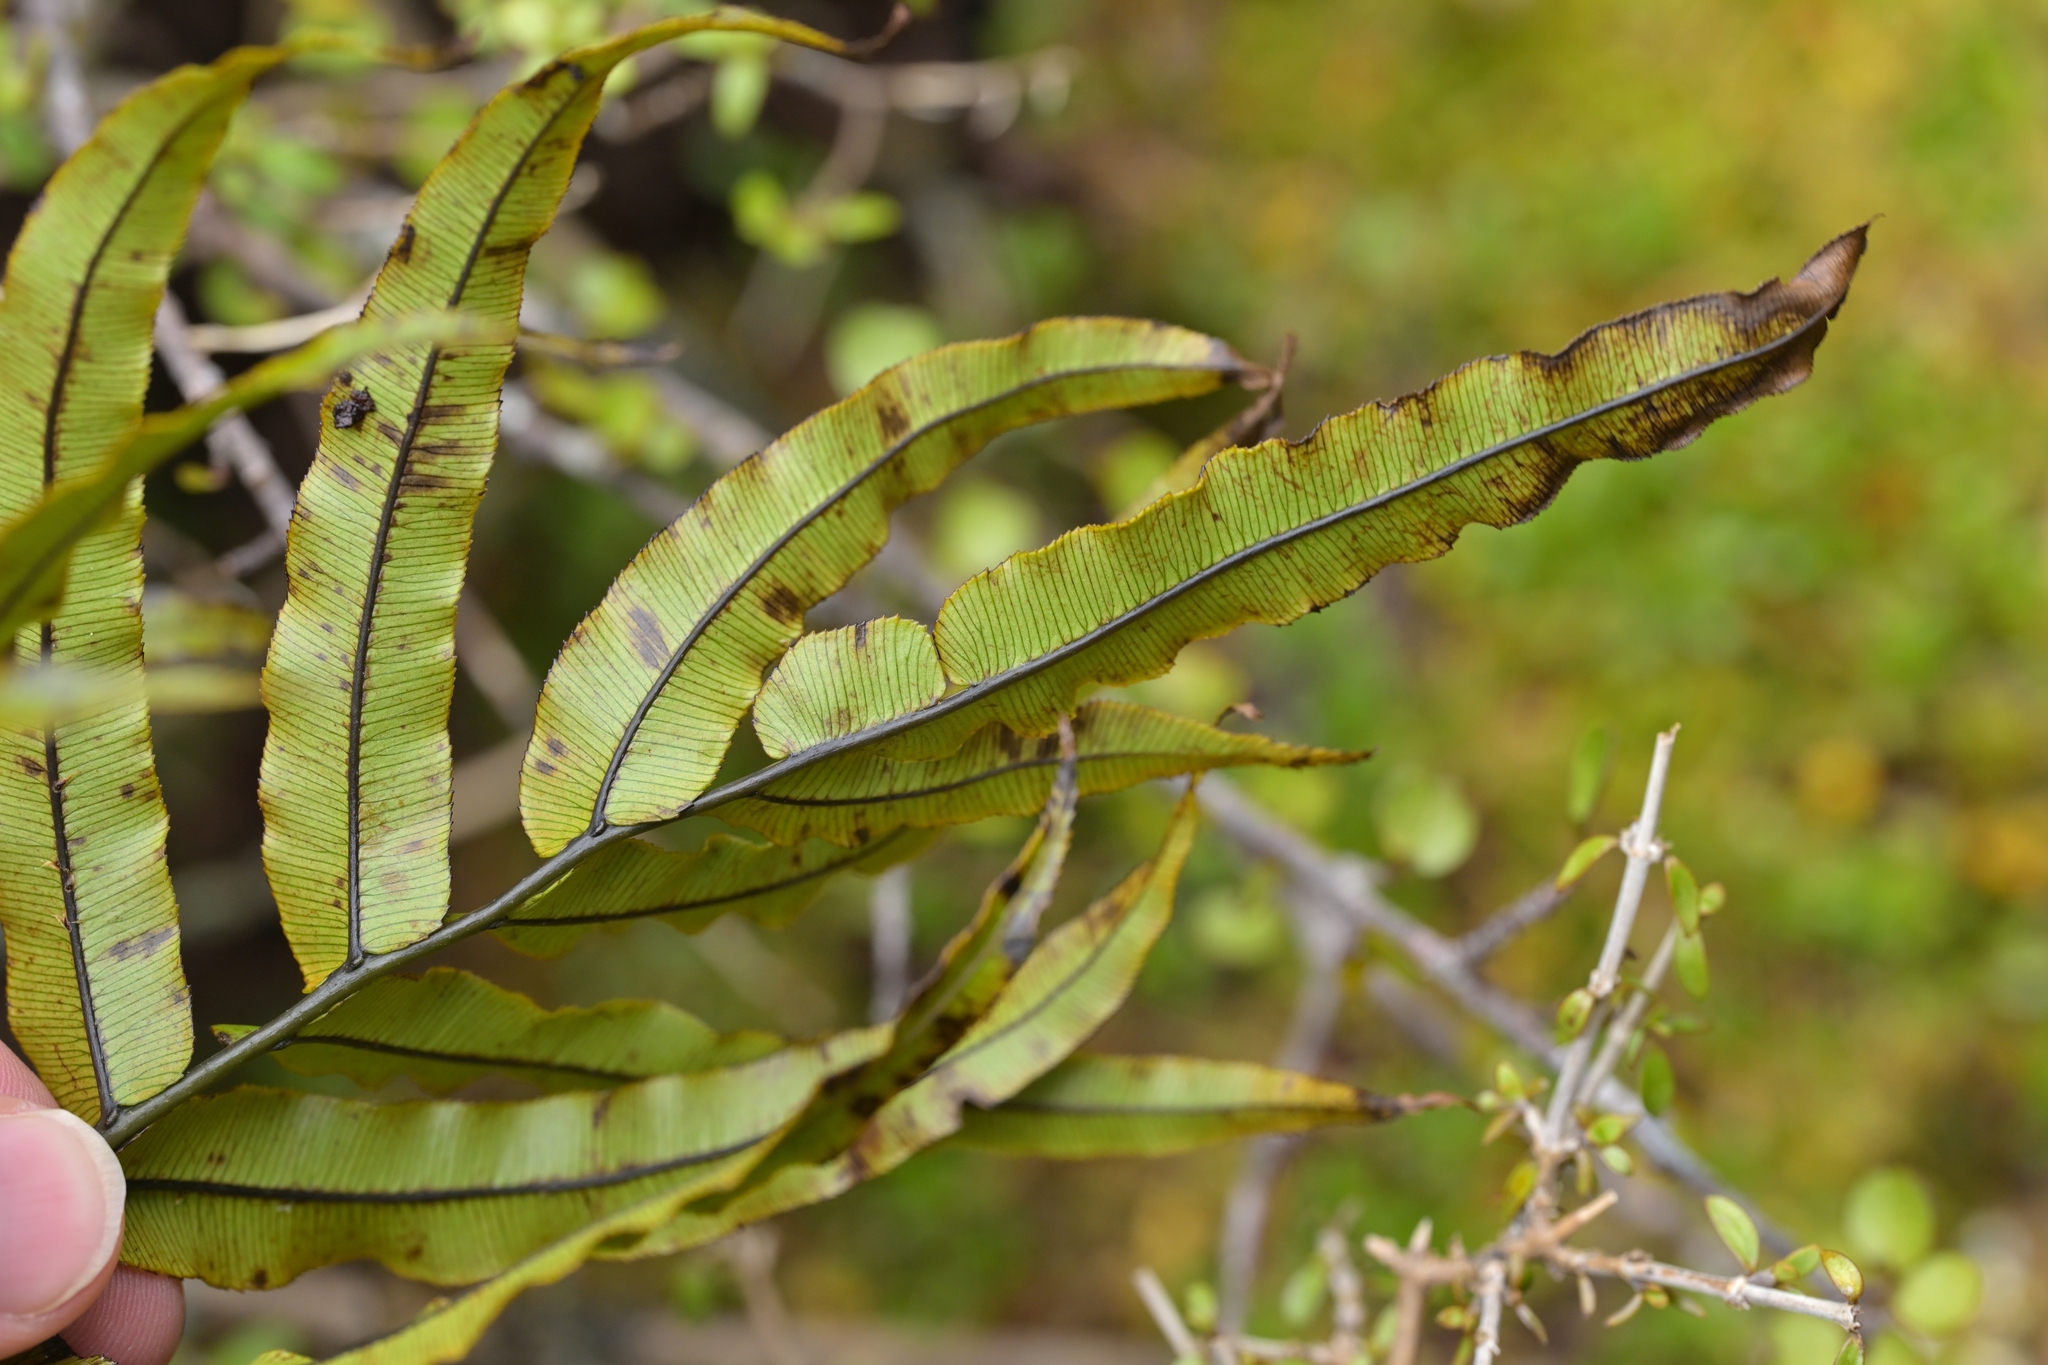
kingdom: Plantae
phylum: Tracheophyta
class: Polypodiopsida
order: Polypodiales
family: Blechnaceae
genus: Parablechnum
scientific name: Parablechnum montanum
